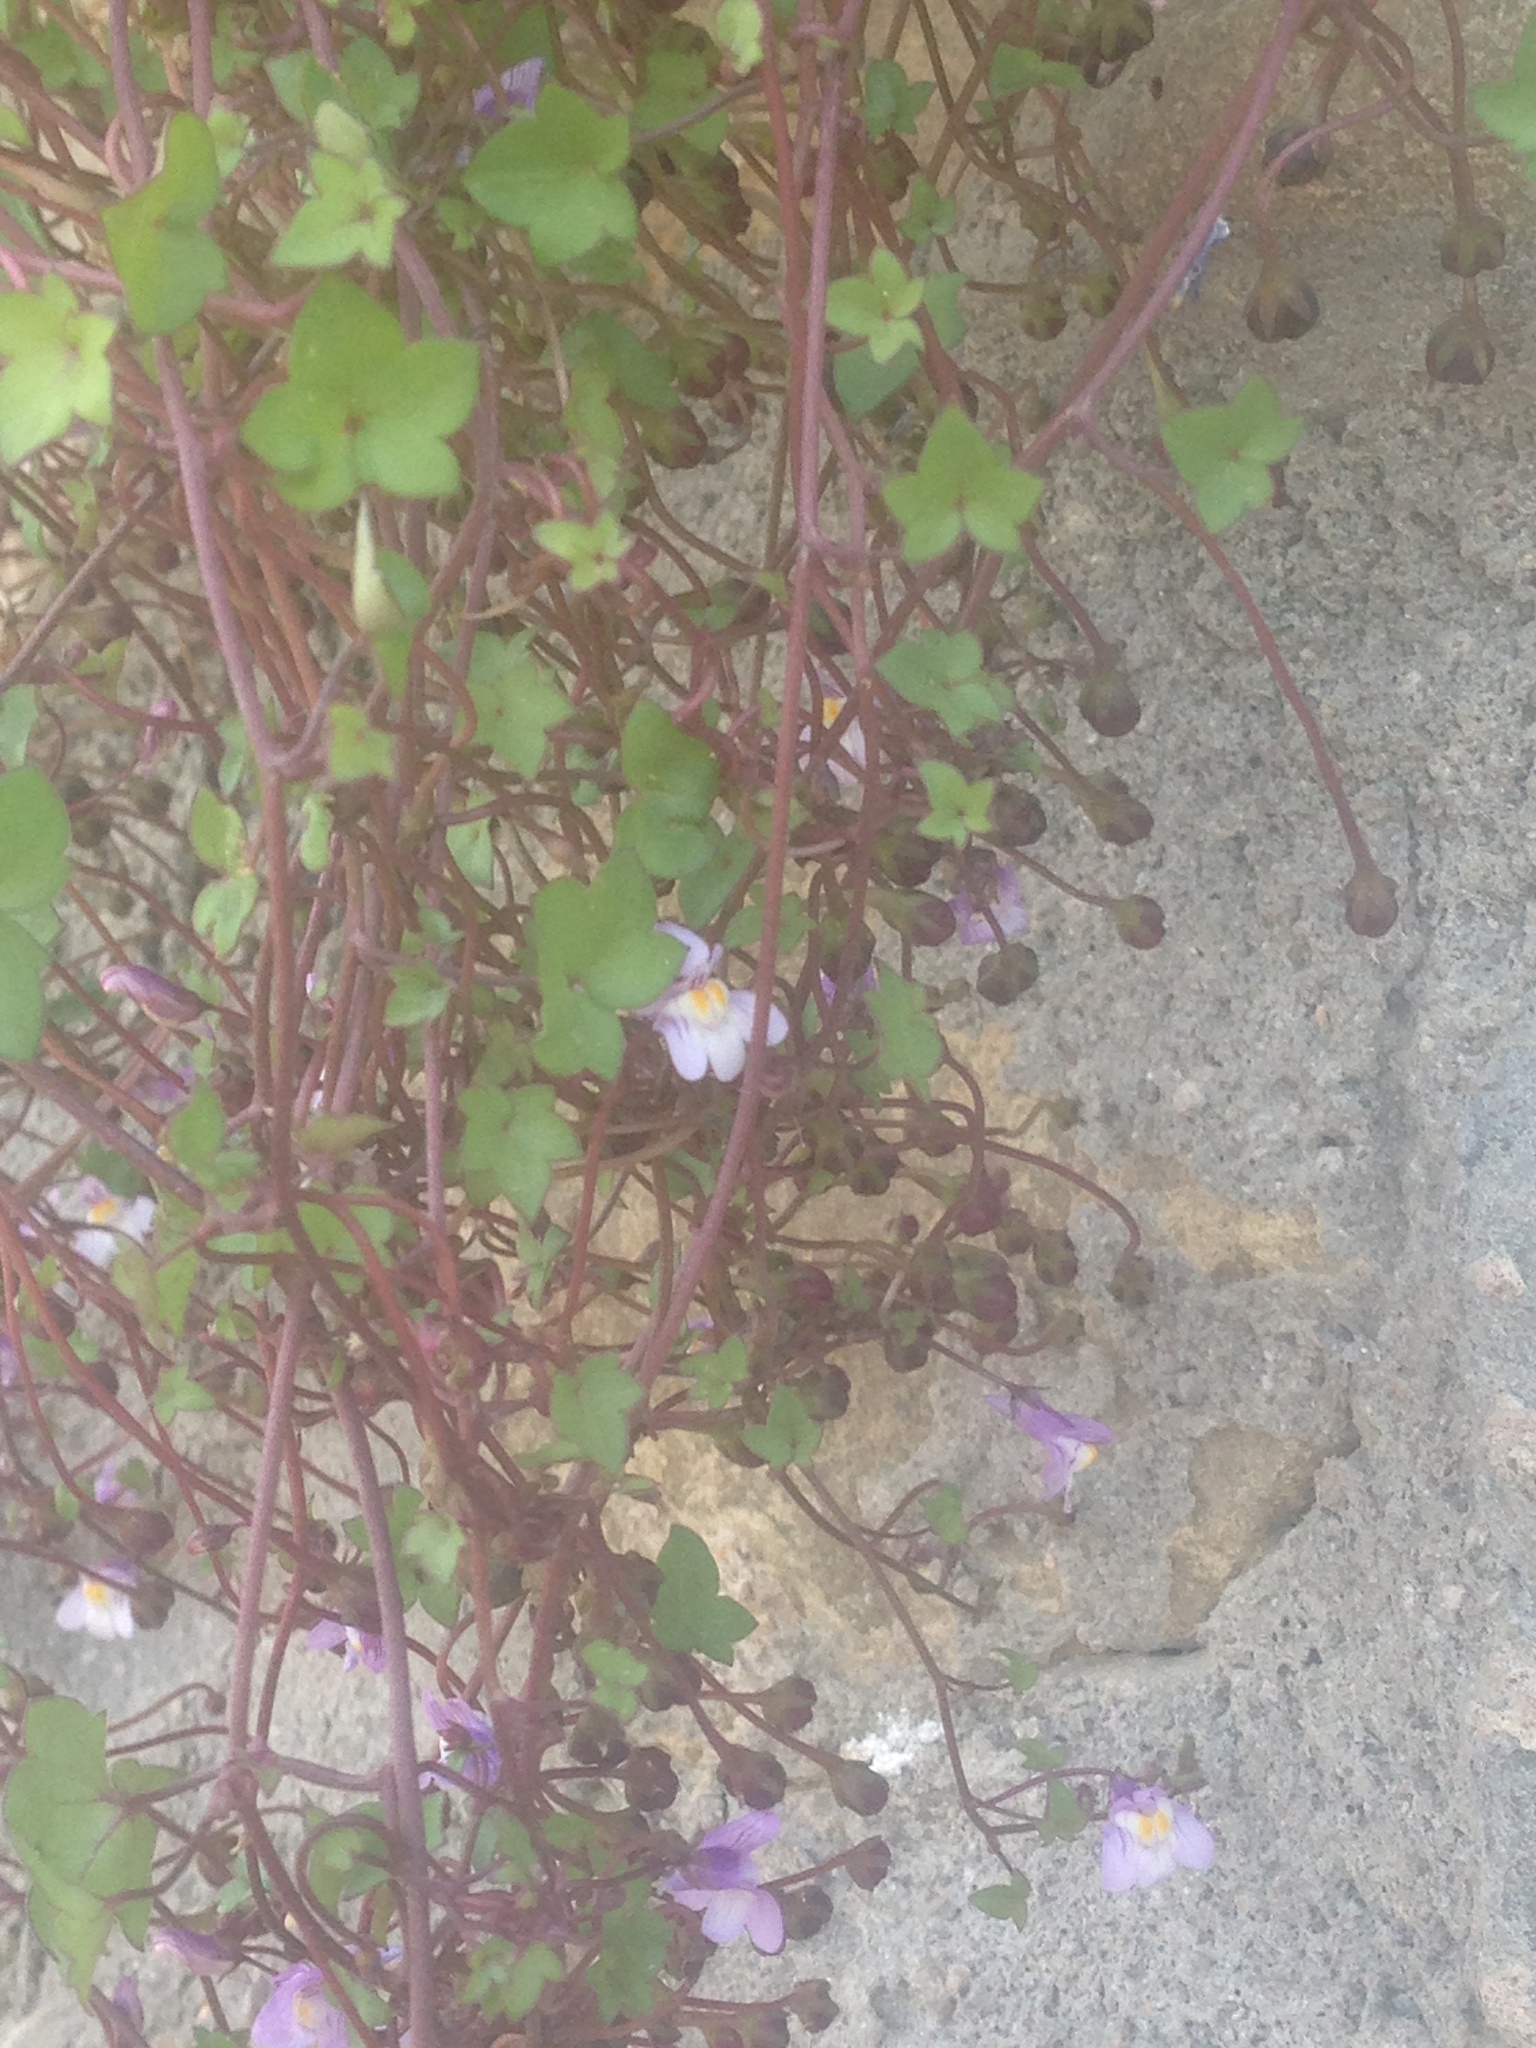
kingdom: Plantae
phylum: Tracheophyta
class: Magnoliopsida
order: Lamiales
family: Plantaginaceae
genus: Cymbalaria
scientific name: Cymbalaria muralis
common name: Ivy-leaved toadflax
